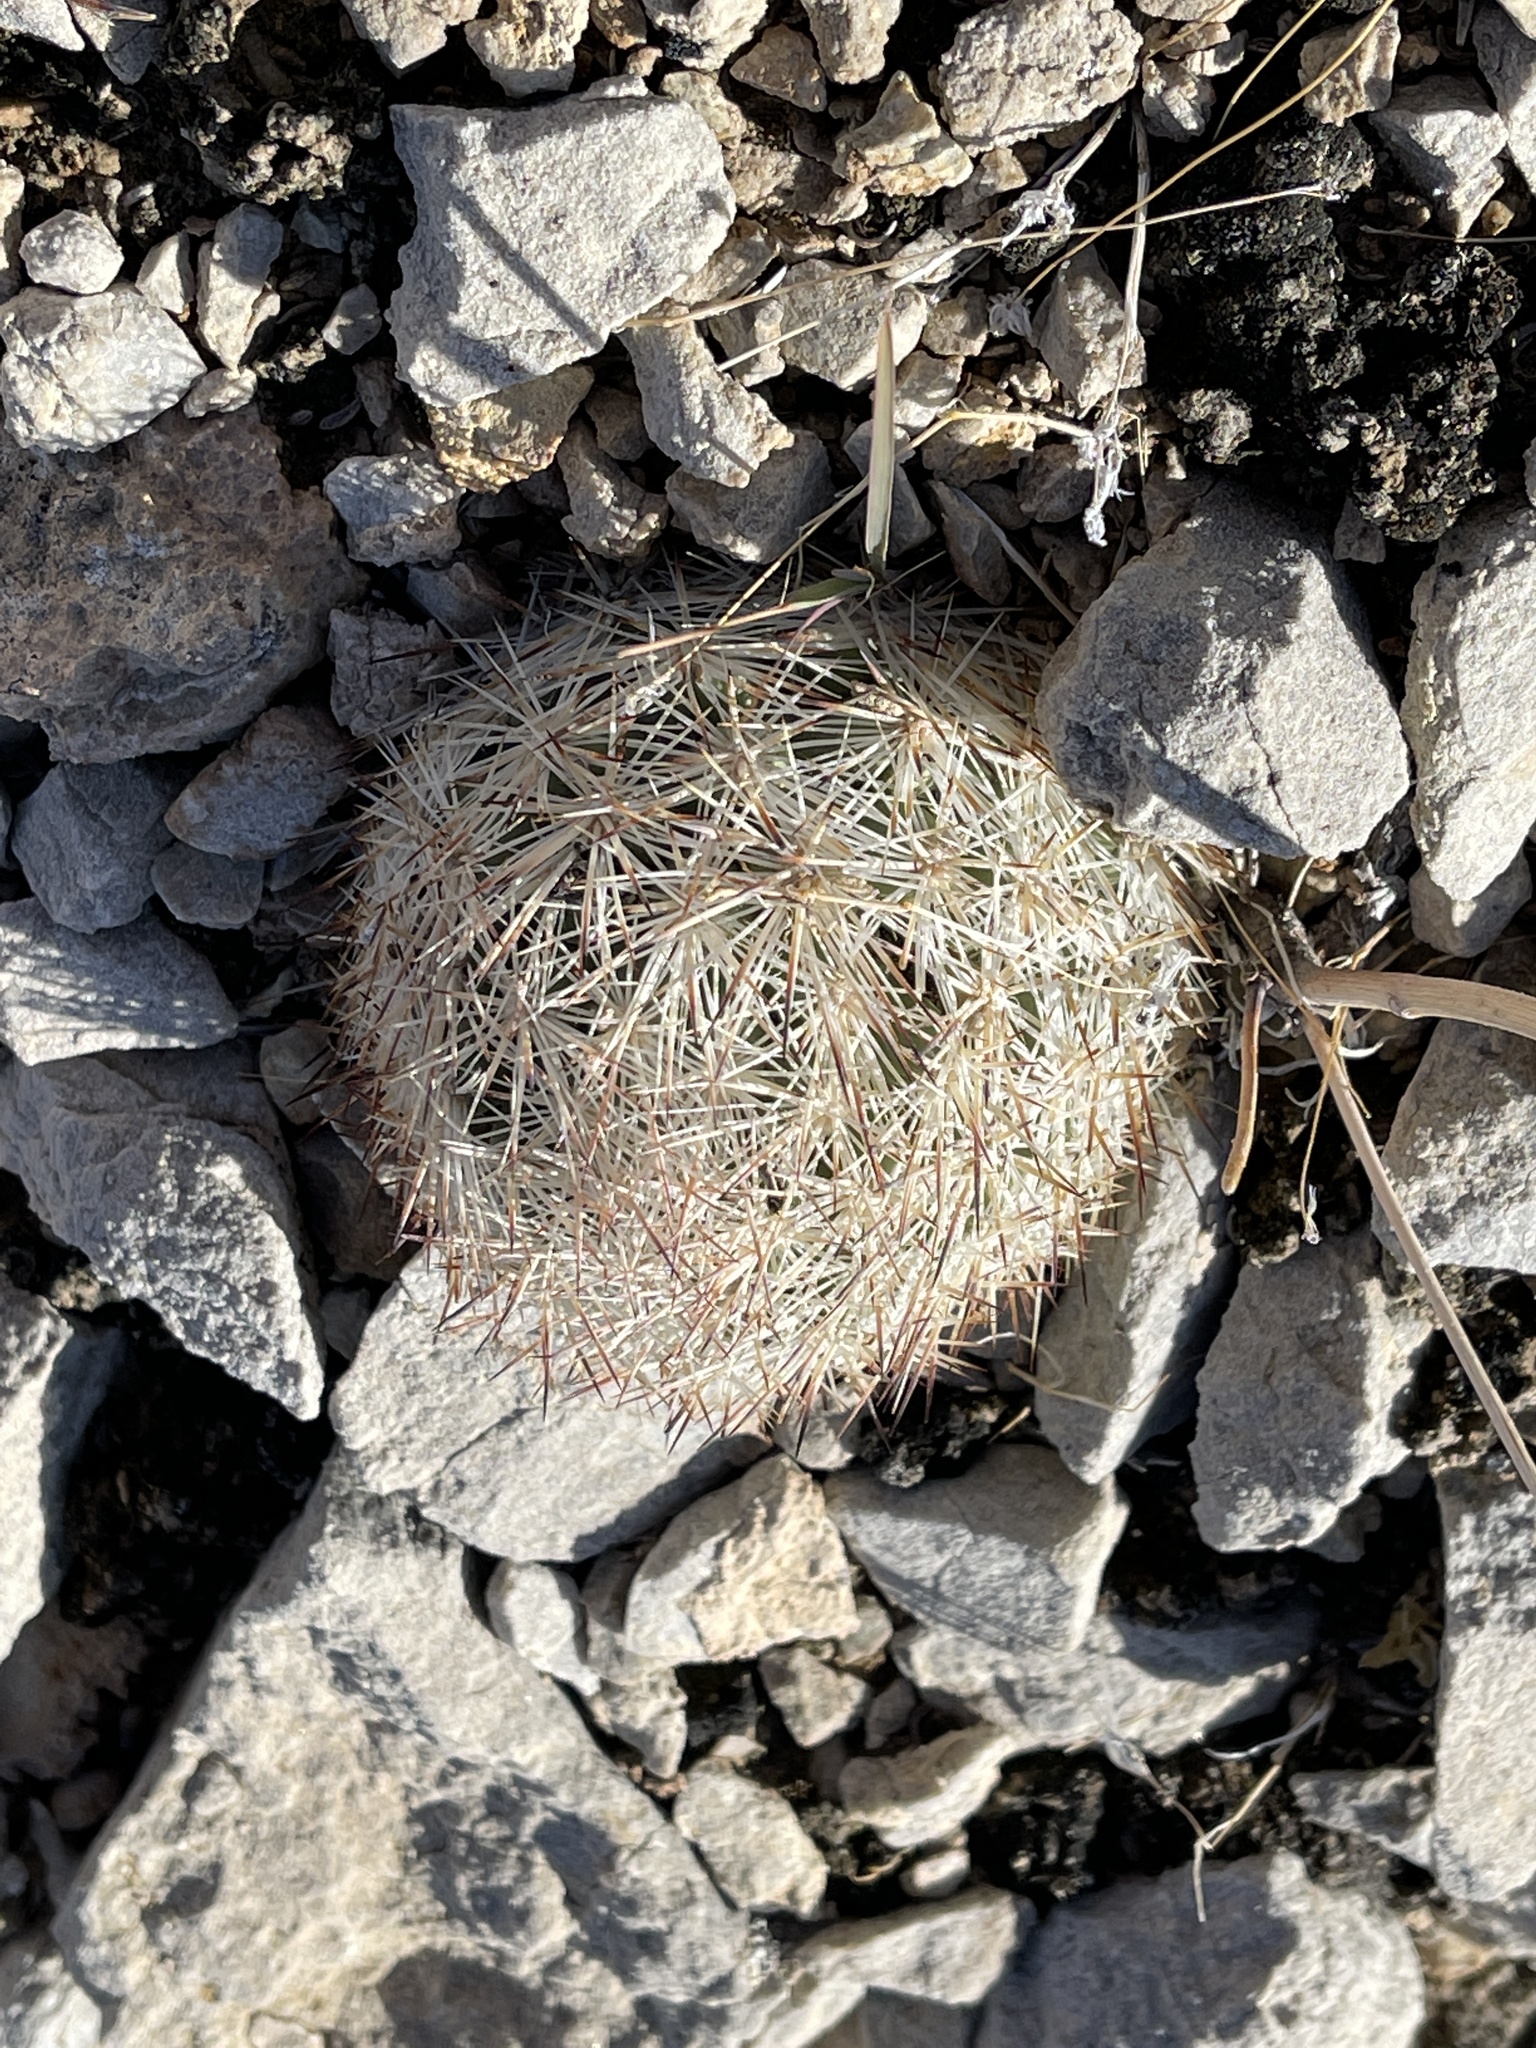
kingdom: Plantae
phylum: Tracheophyta
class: Magnoliopsida
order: Caryophyllales
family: Cactaceae
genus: Pelecyphora
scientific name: Pelecyphora dasyacantha
